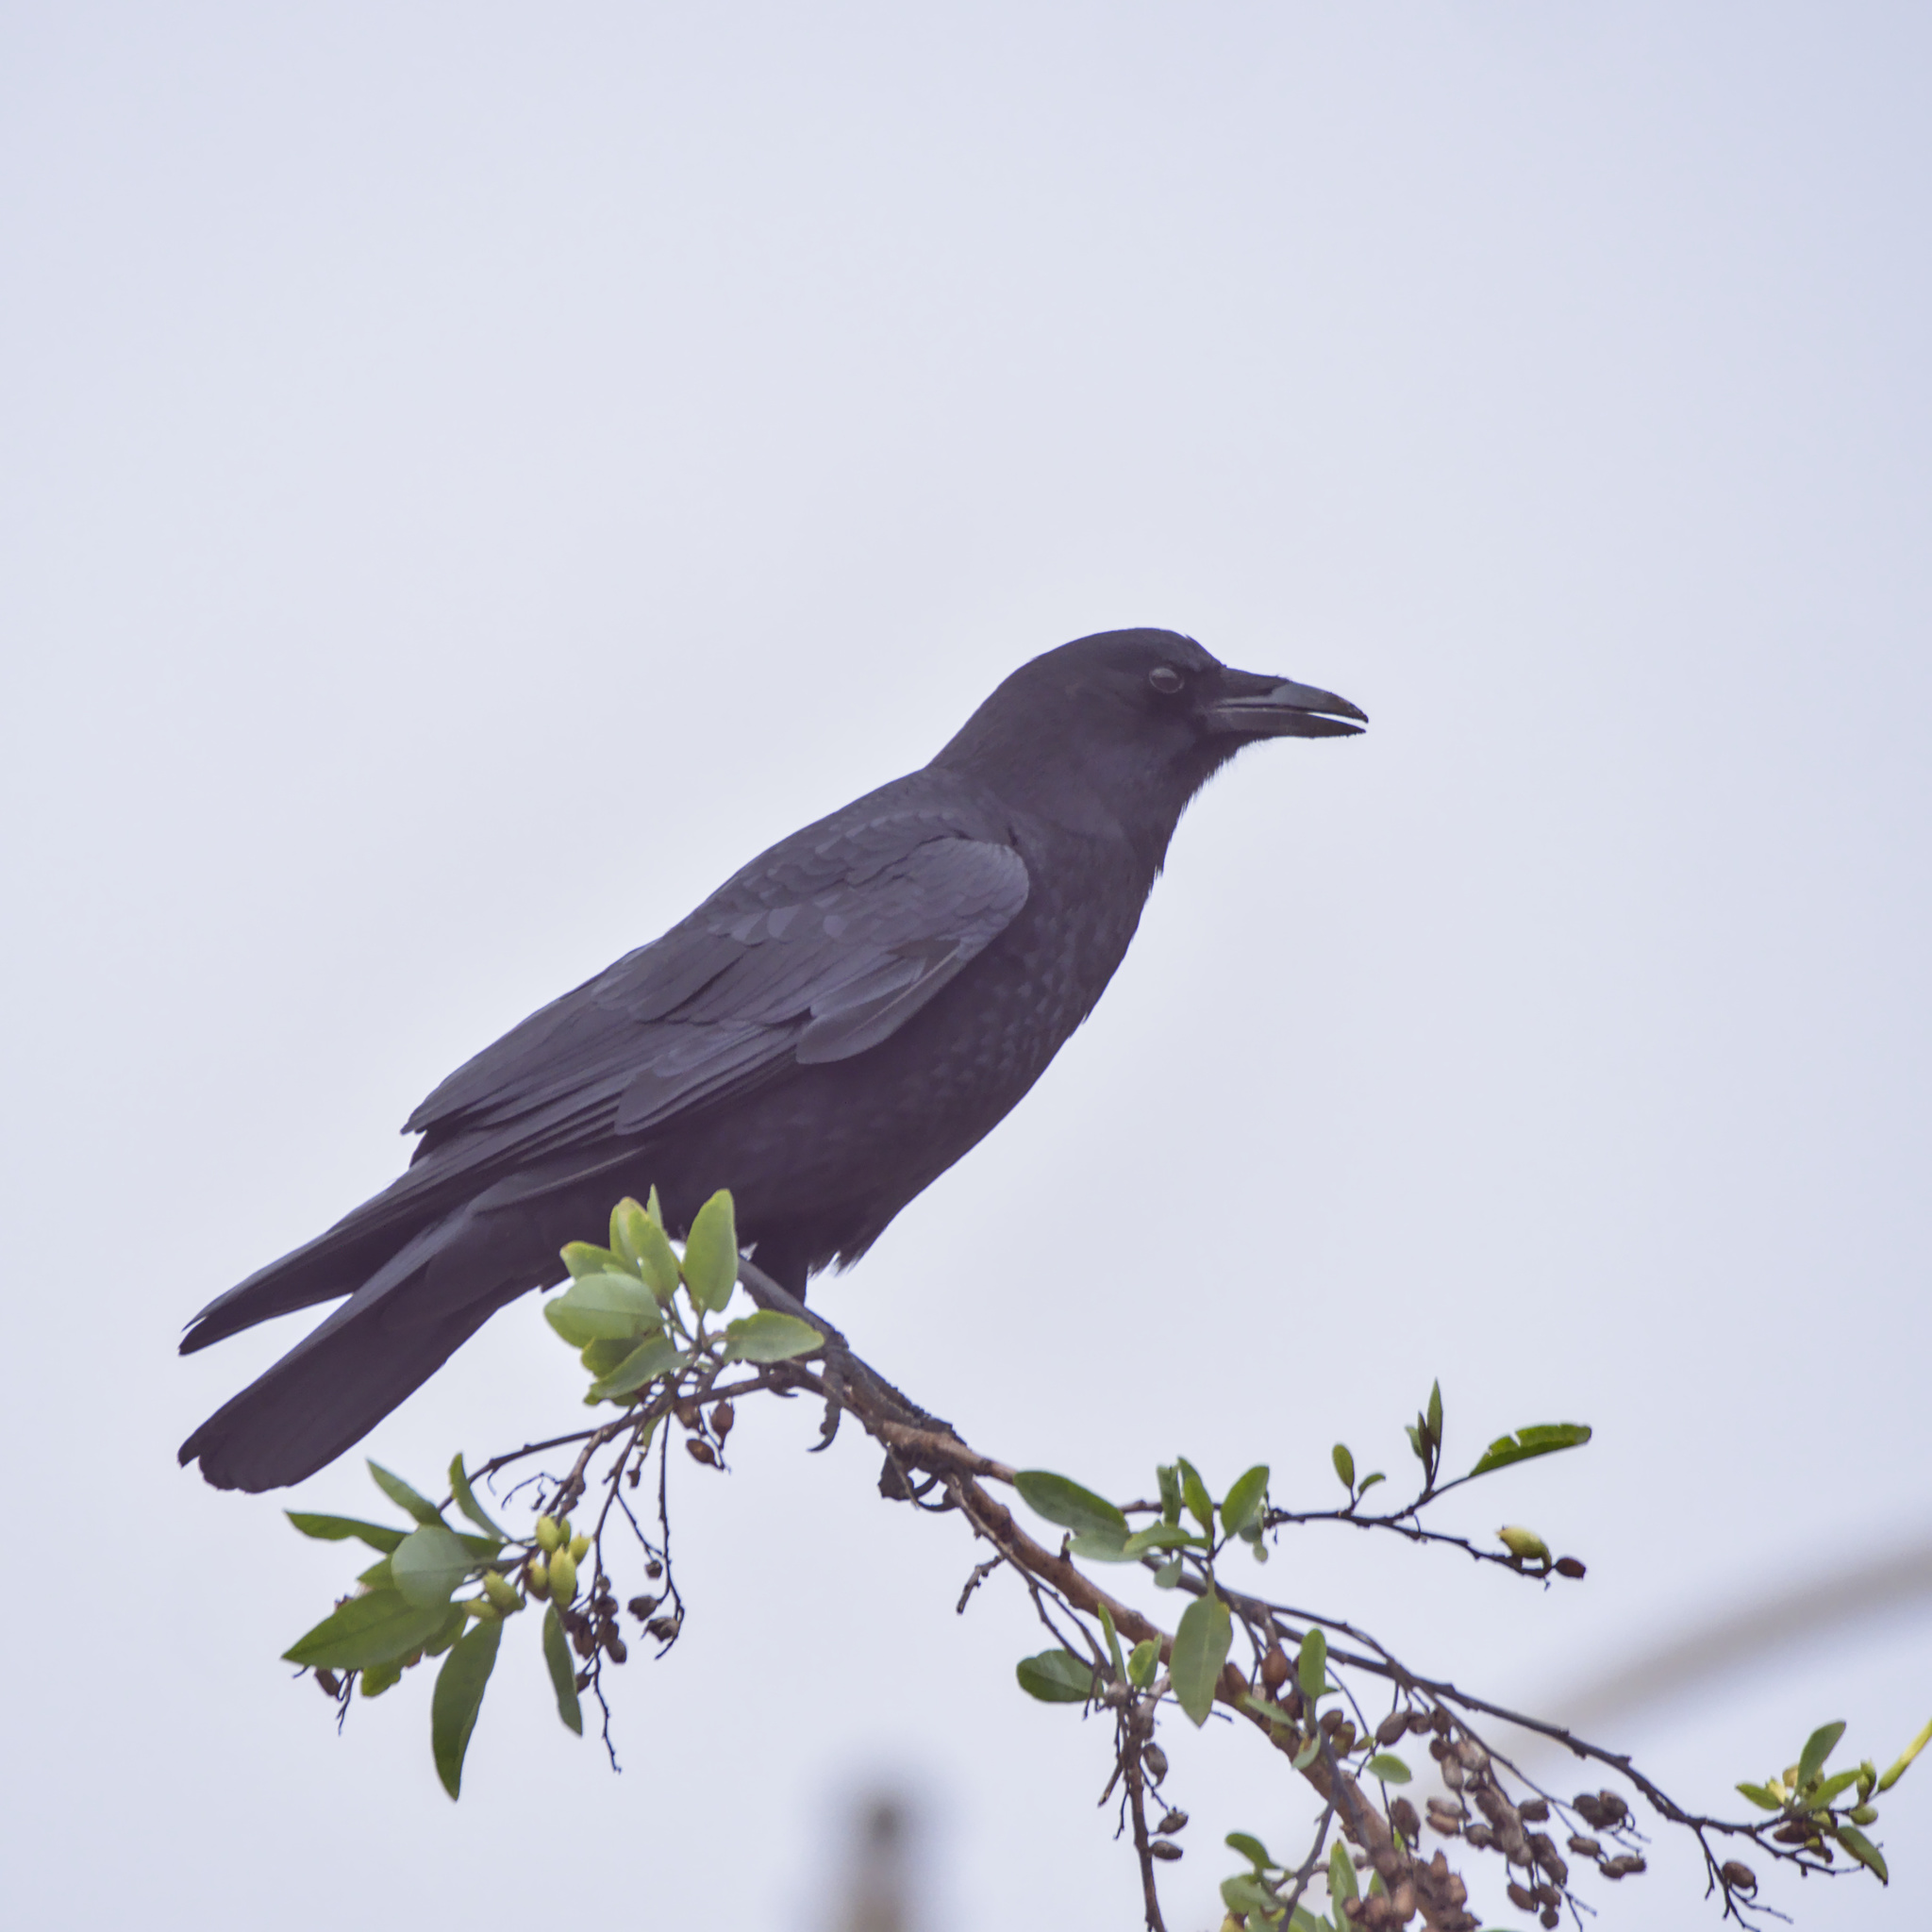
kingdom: Animalia
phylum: Chordata
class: Aves
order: Passeriformes
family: Corvidae
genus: Corvus
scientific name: Corvus brachyrhynchos
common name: American crow
